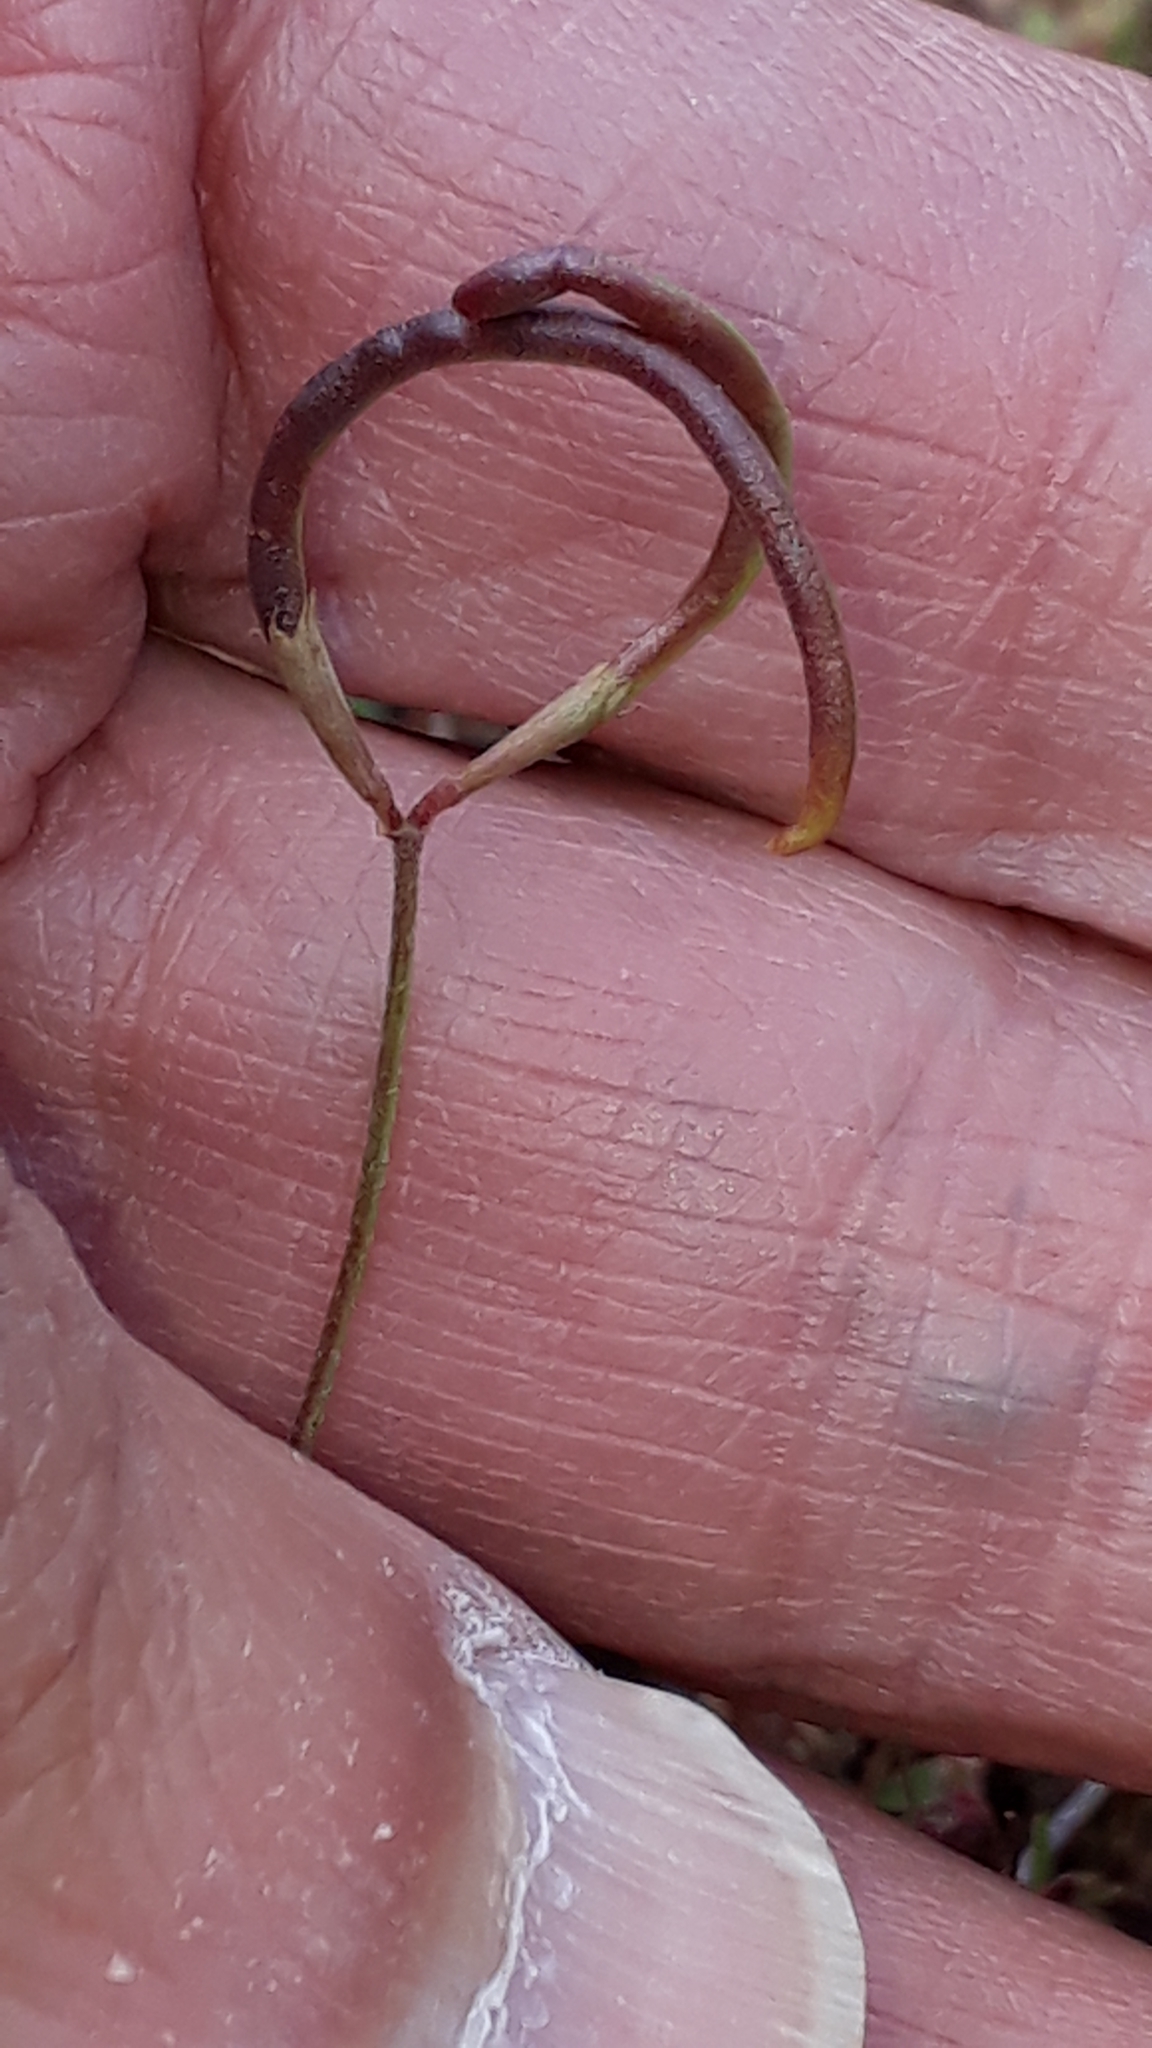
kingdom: Plantae
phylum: Tracheophyta
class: Magnoliopsida
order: Fabales
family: Fabaceae
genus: Ornithopus
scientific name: Ornithopus pinnatus
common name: Orange bird's-foot
